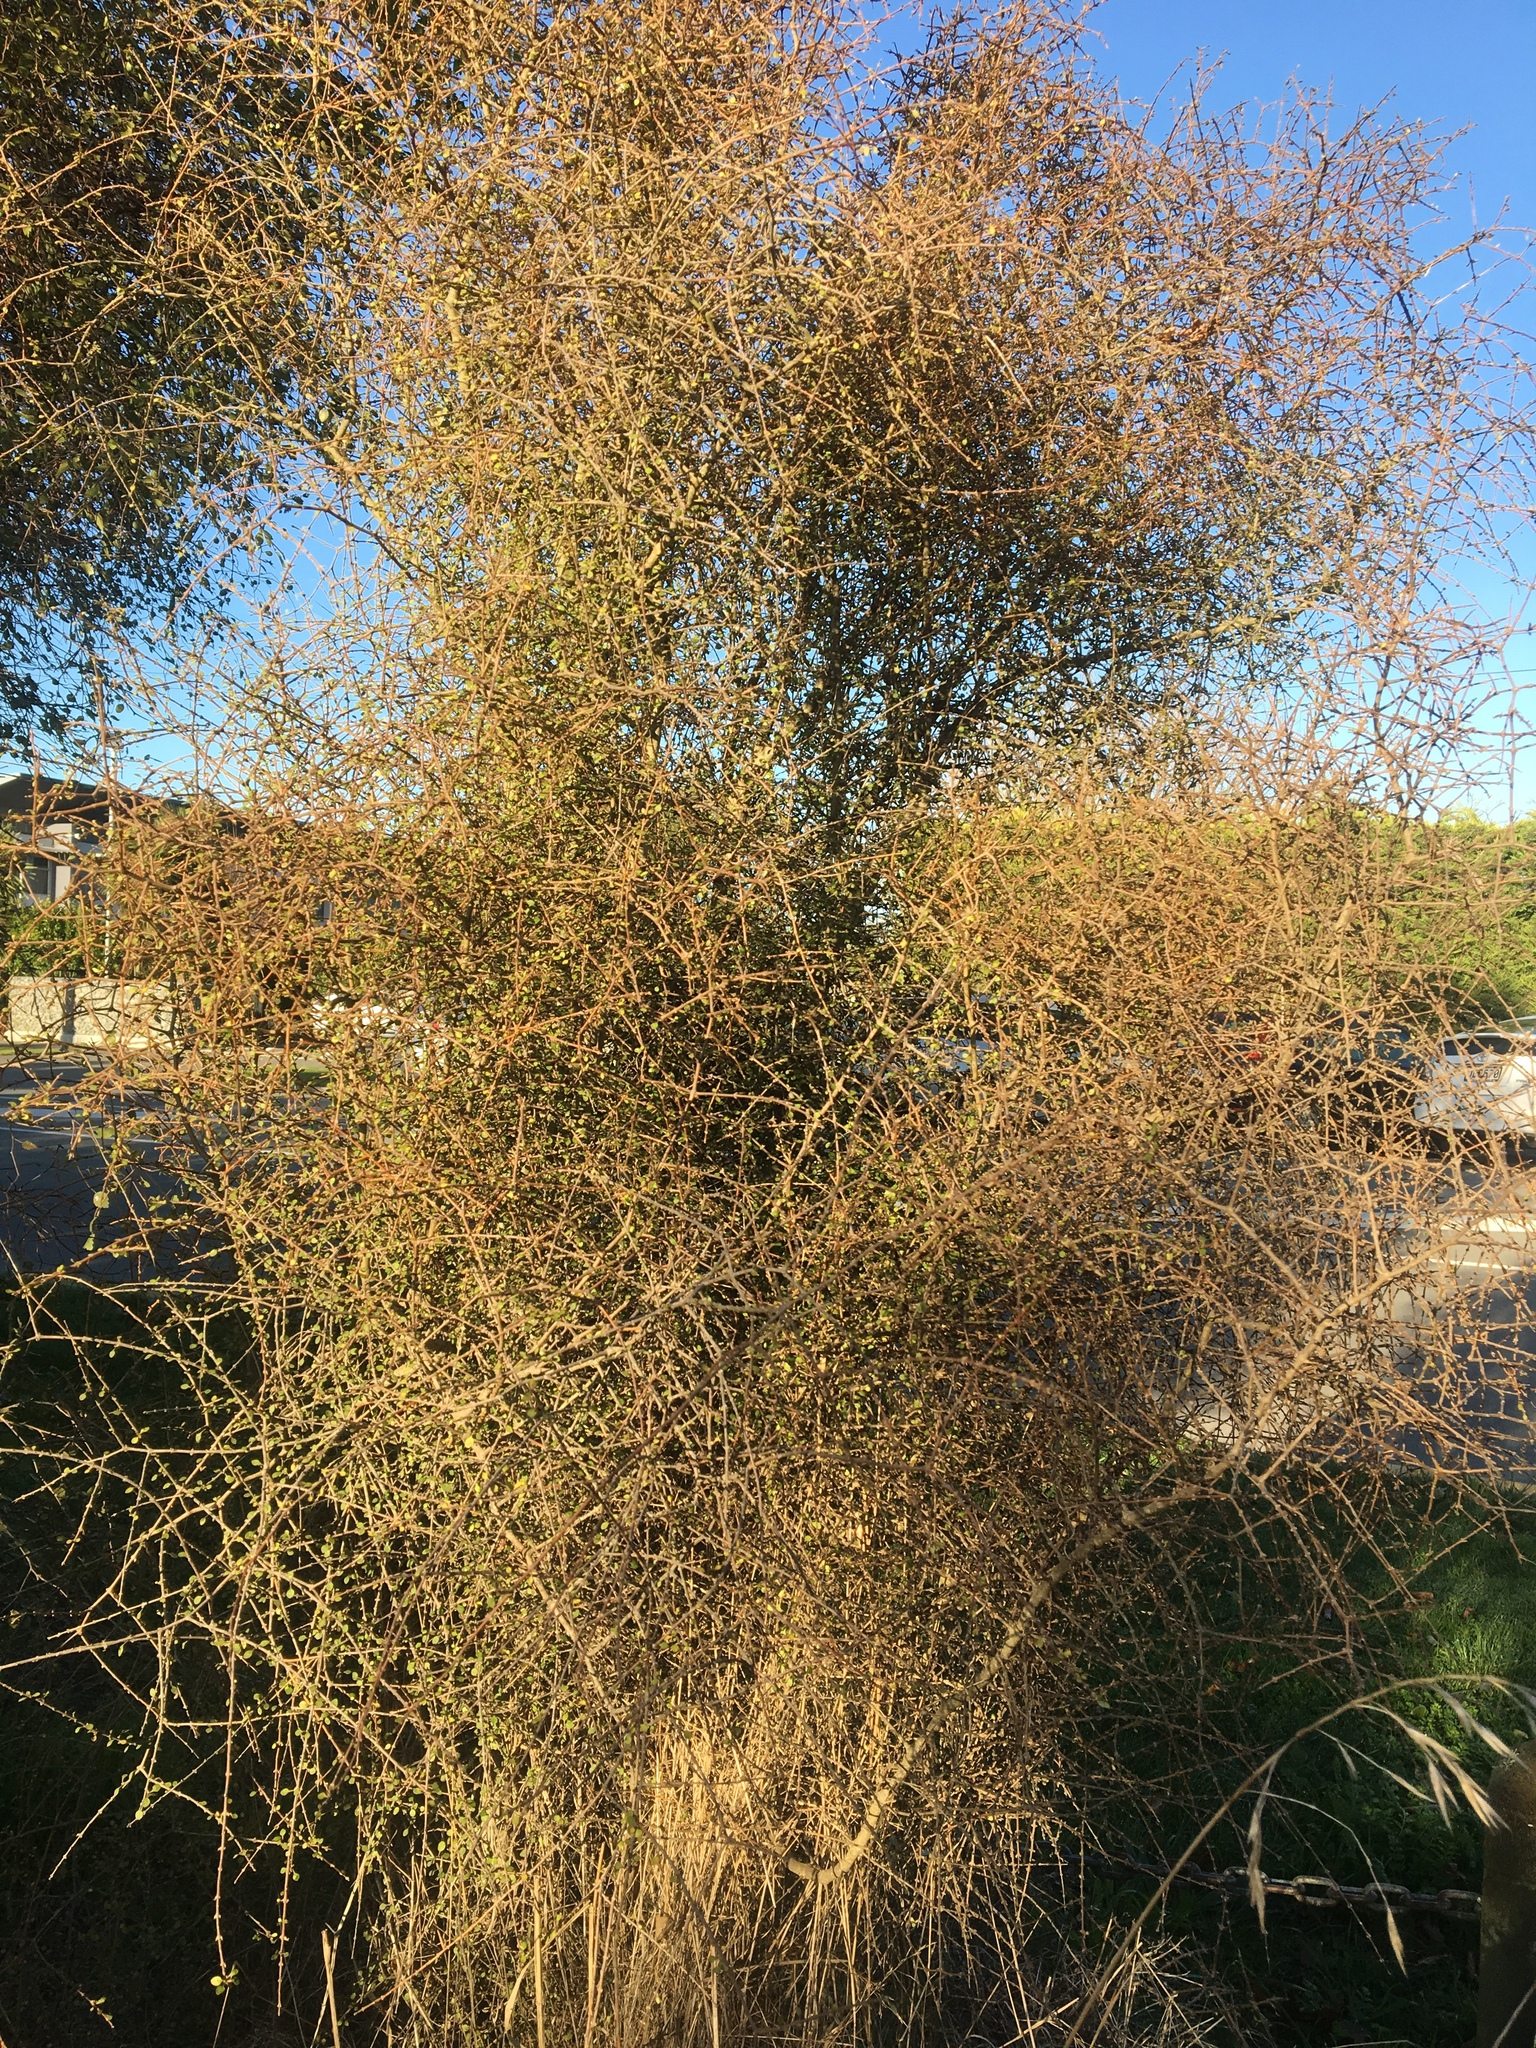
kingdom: Plantae
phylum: Tracheophyta
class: Magnoliopsida
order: Gentianales
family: Rubiaceae
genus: Coprosma
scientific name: Coprosma virescens
